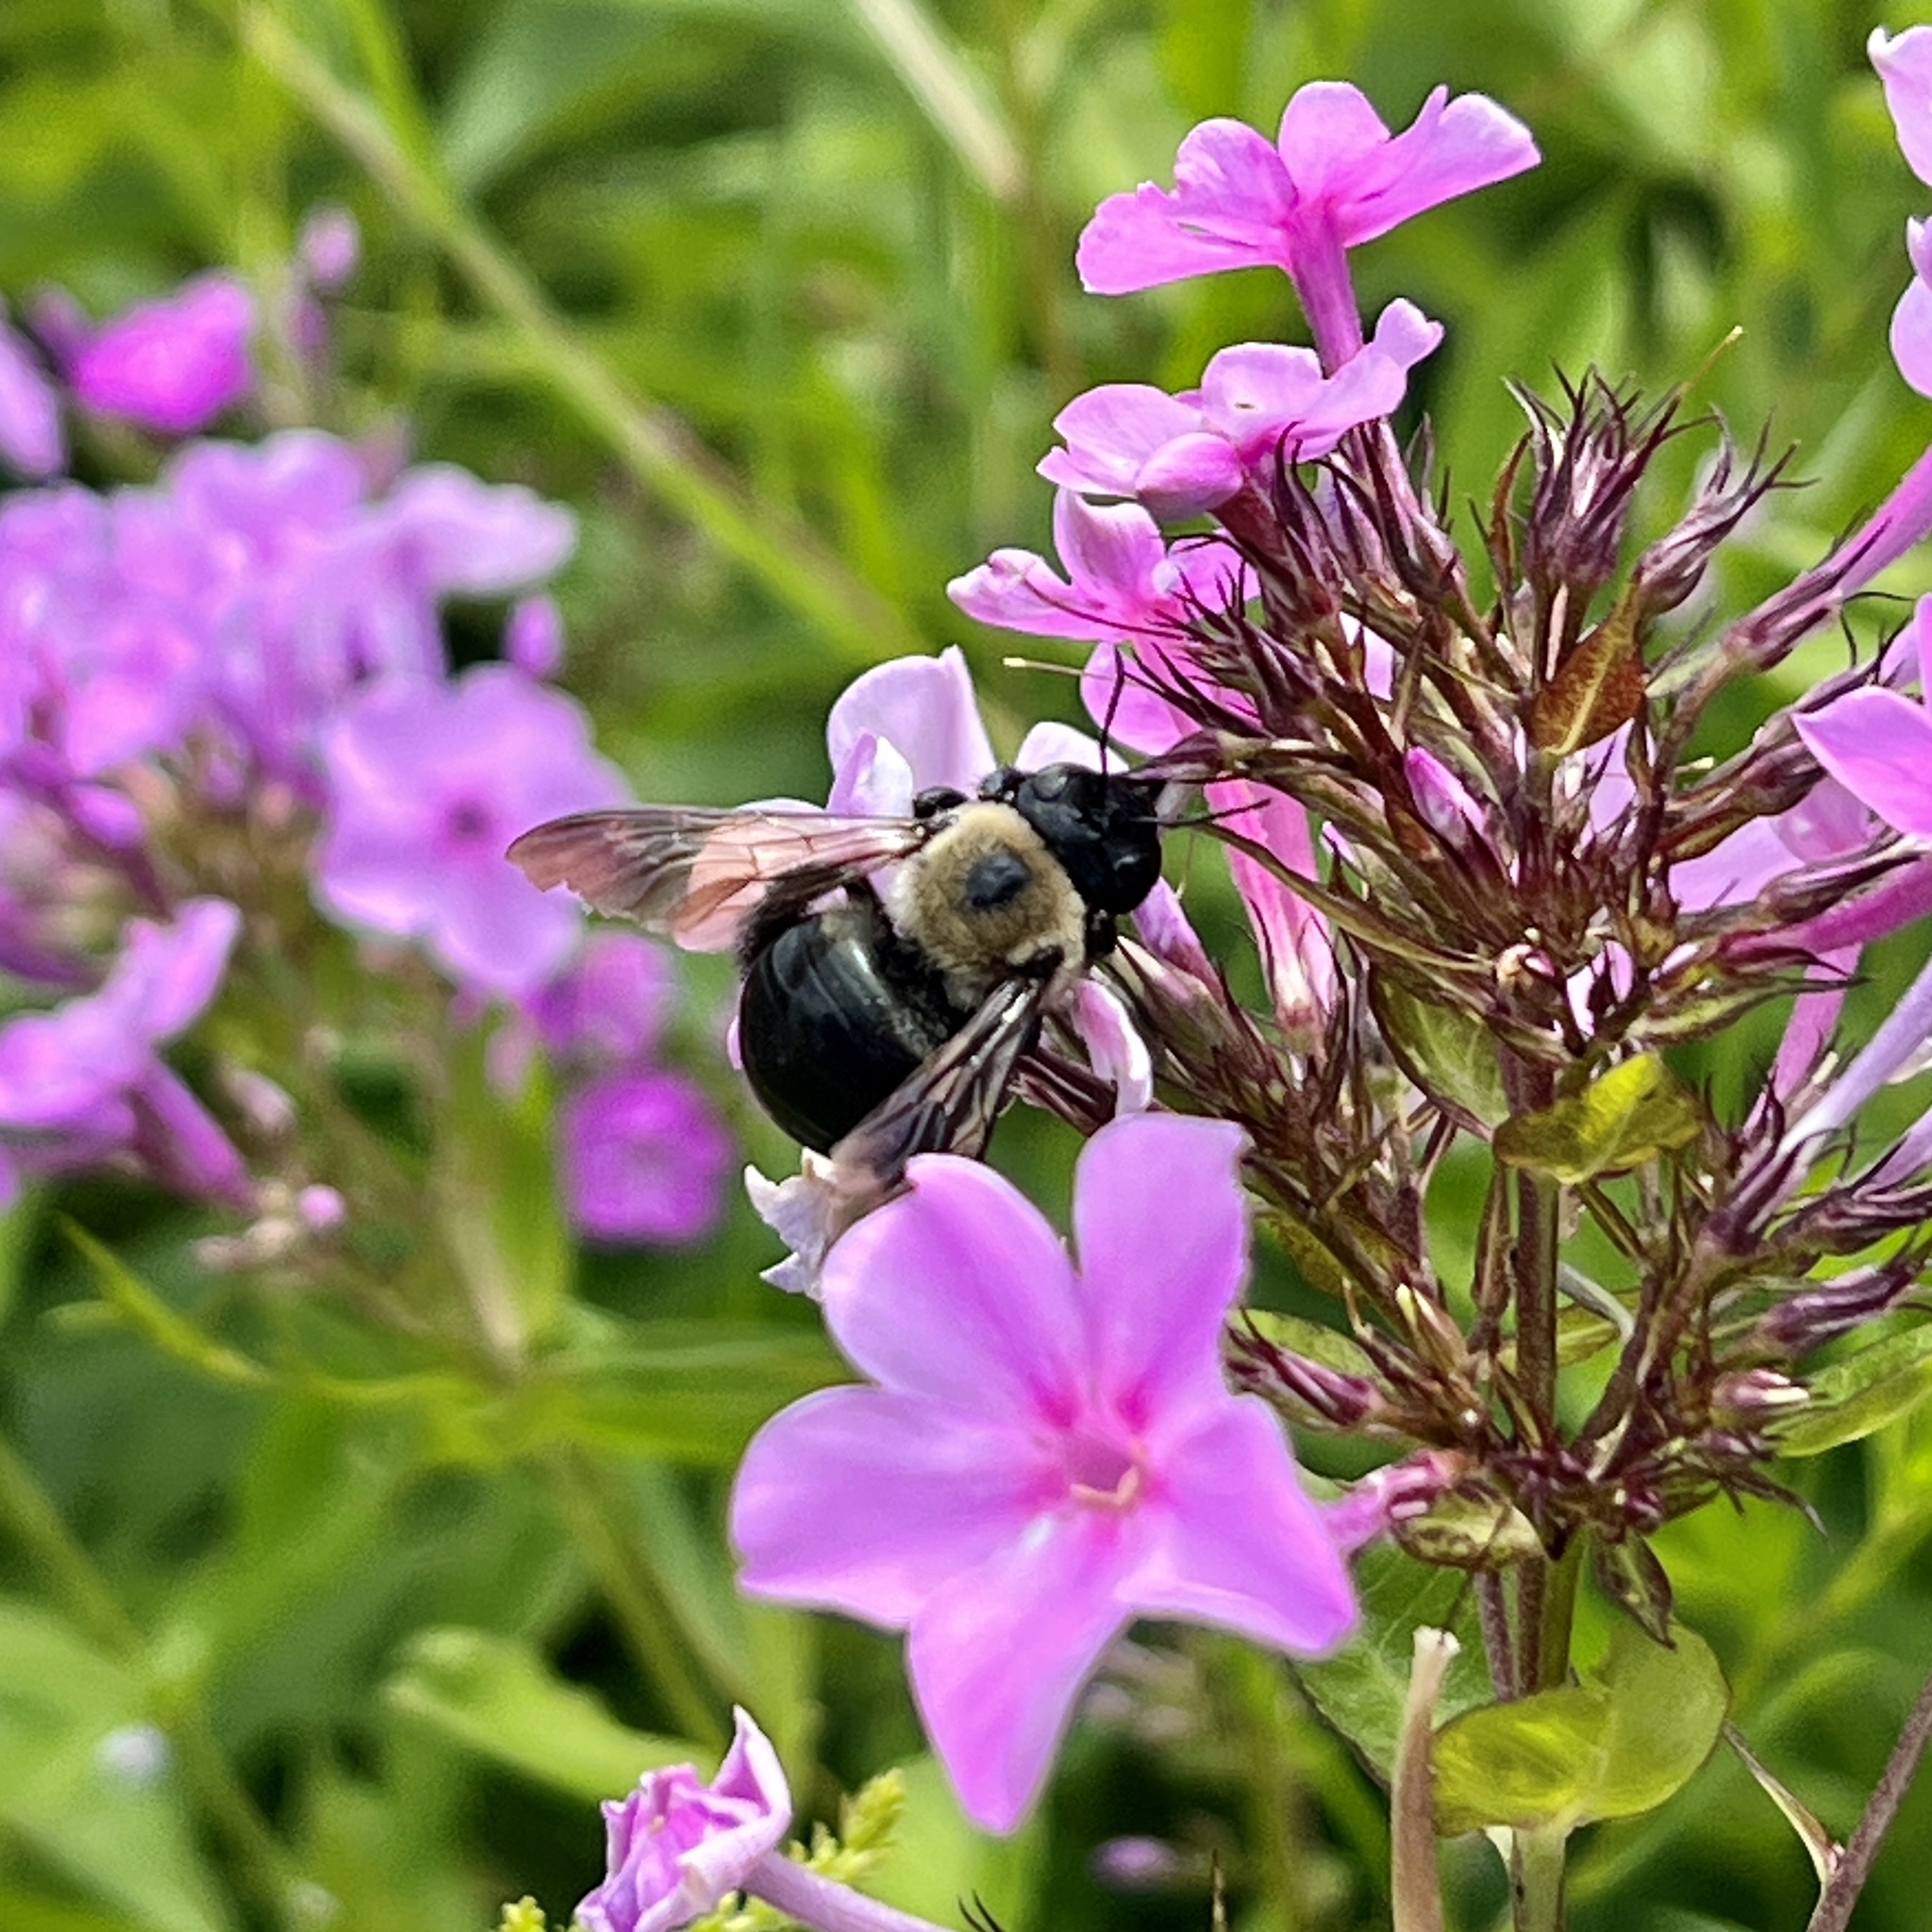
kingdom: Animalia
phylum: Arthropoda
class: Insecta
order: Hymenoptera
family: Apidae
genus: Xylocopa
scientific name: Xylocopa virginica
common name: Carpenter bee
